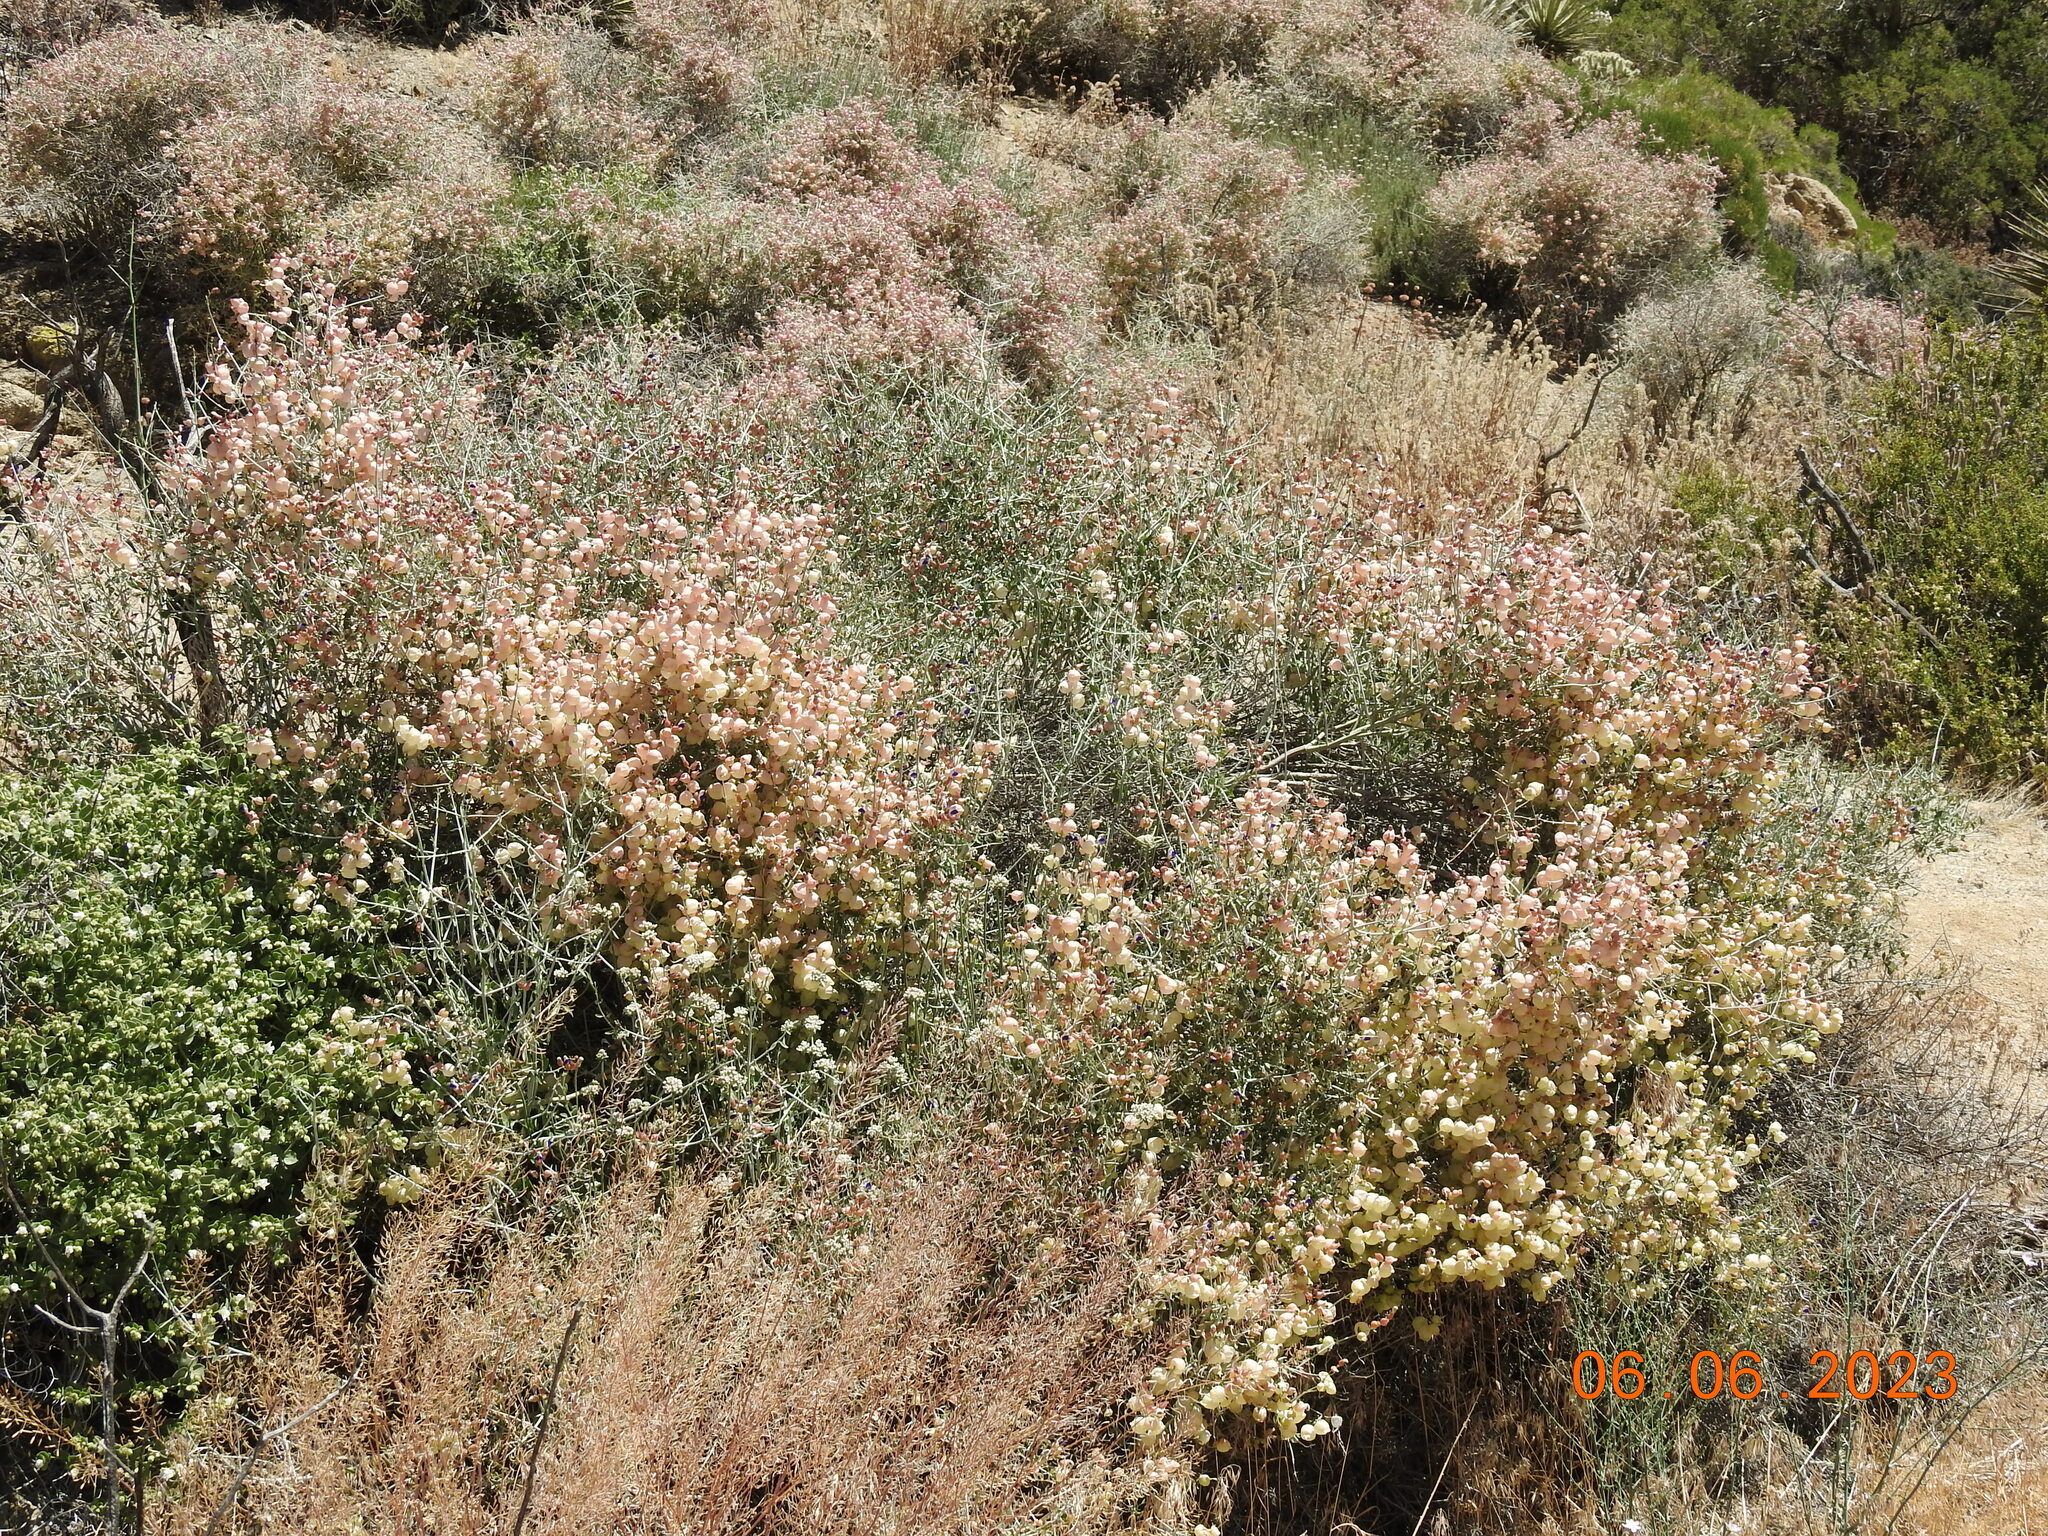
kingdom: Plantae
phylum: Tracheophyta
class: Magnoliopsida
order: Lamiales
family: Lamiaceae
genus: Scutellaria
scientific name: Scutellaria mexicana
